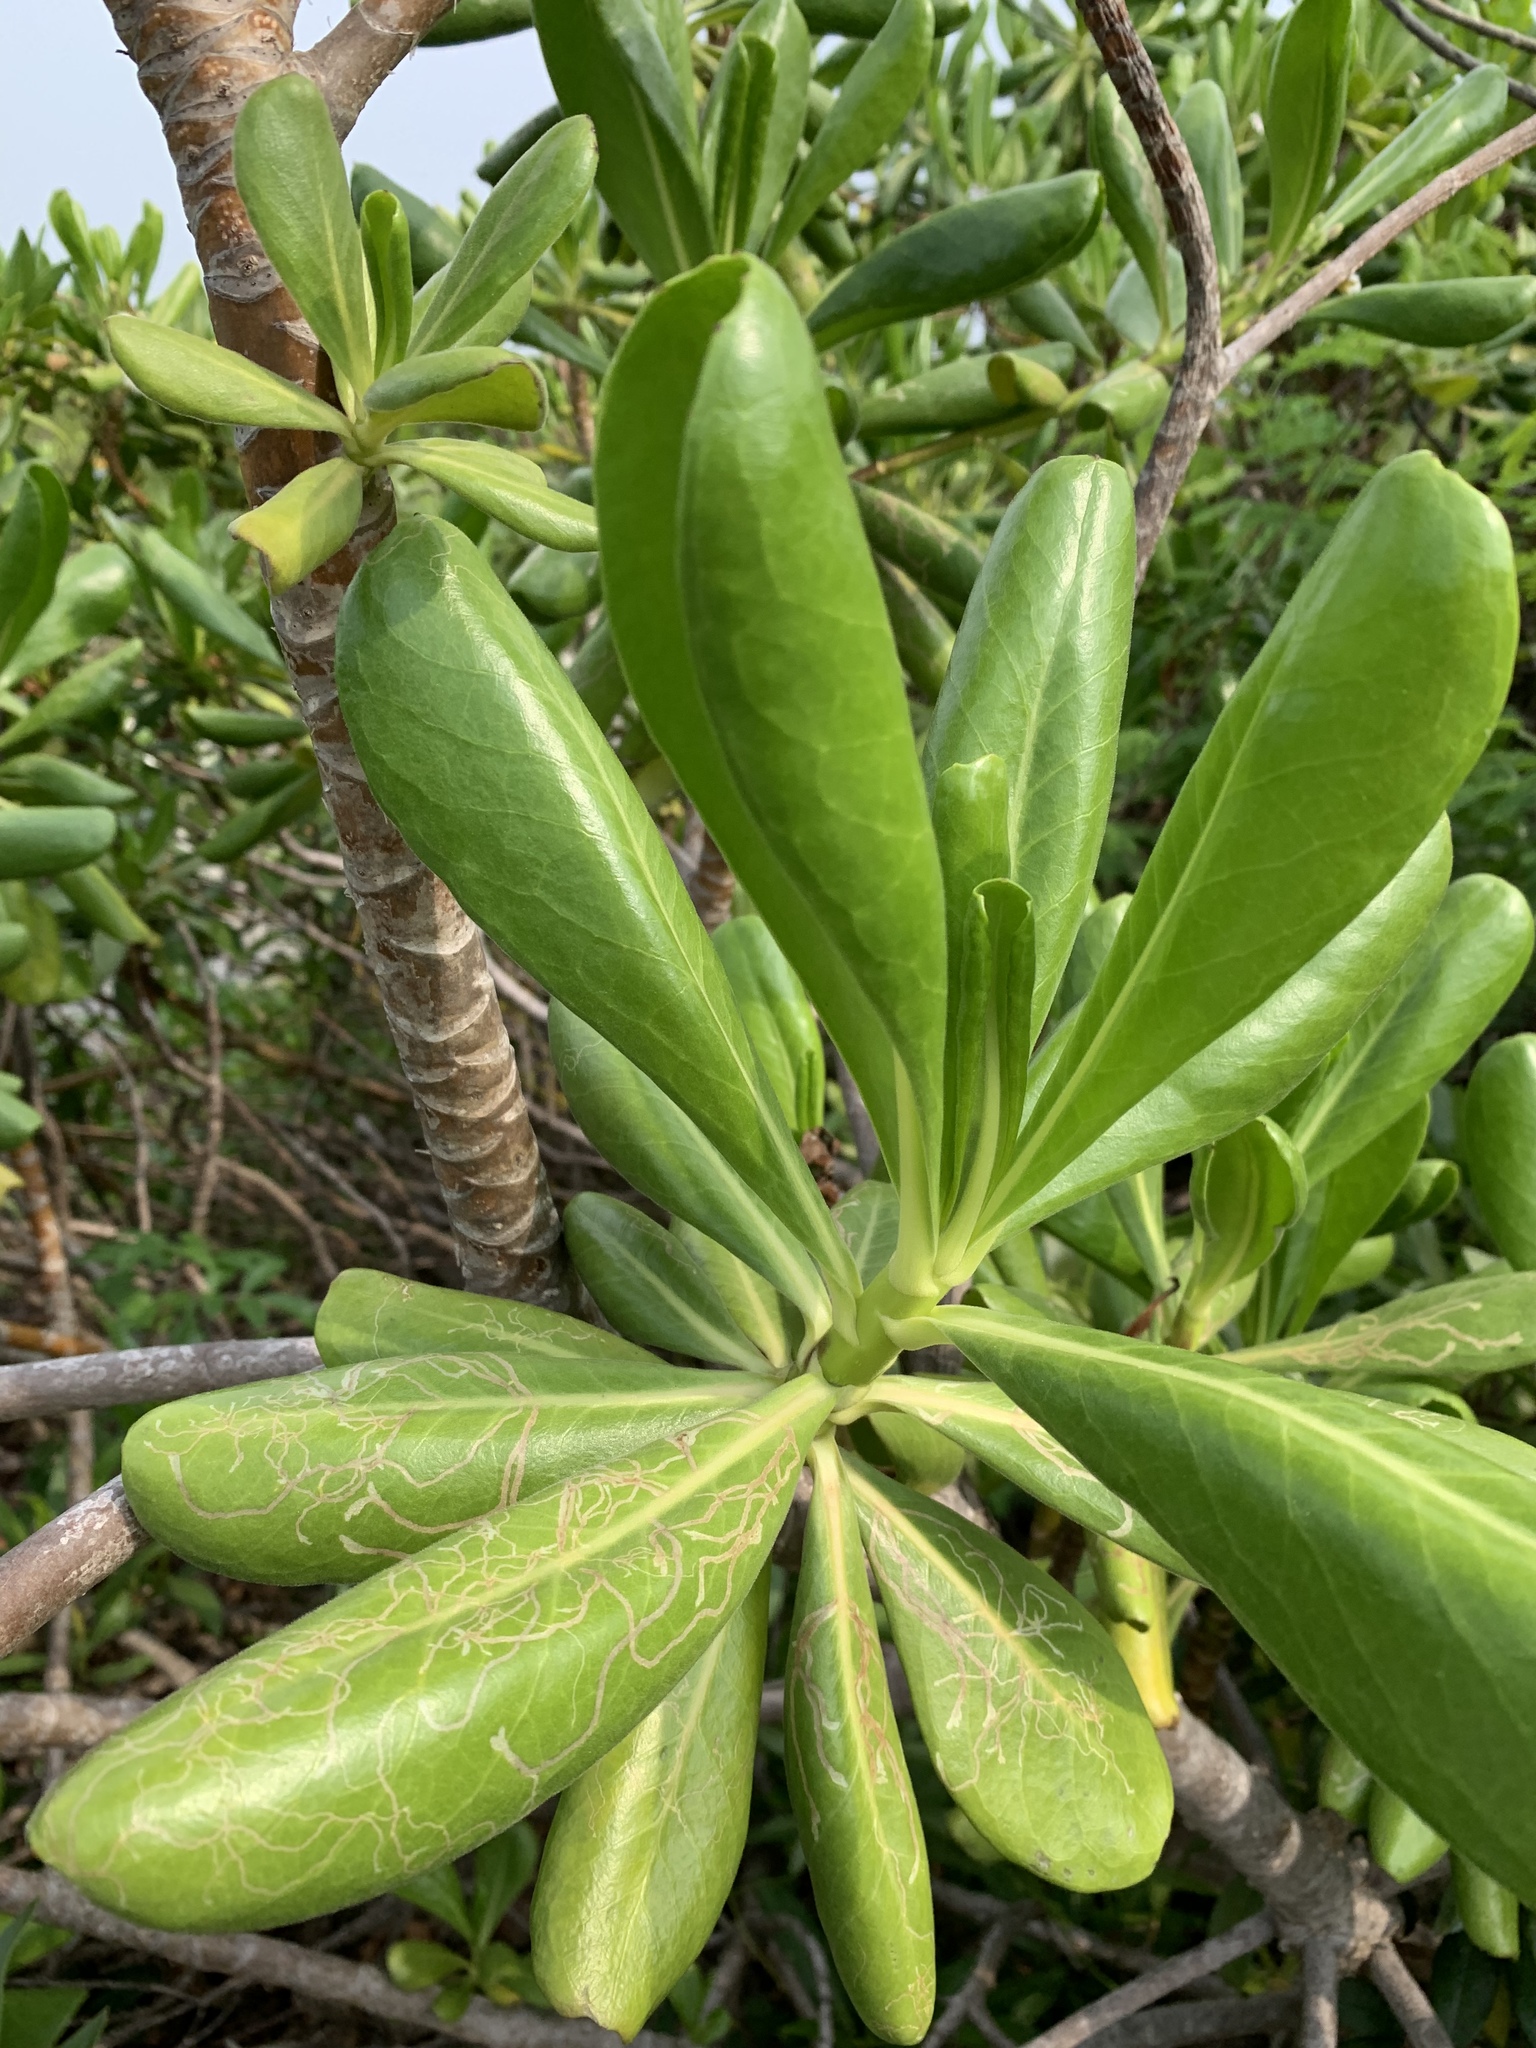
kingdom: Plantae
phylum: Tracheophyta
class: Magnoliopsida
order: Asterales
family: Goodeniaceae
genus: Scaevola
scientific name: Scaevola taccada
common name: Sea lettucetree
